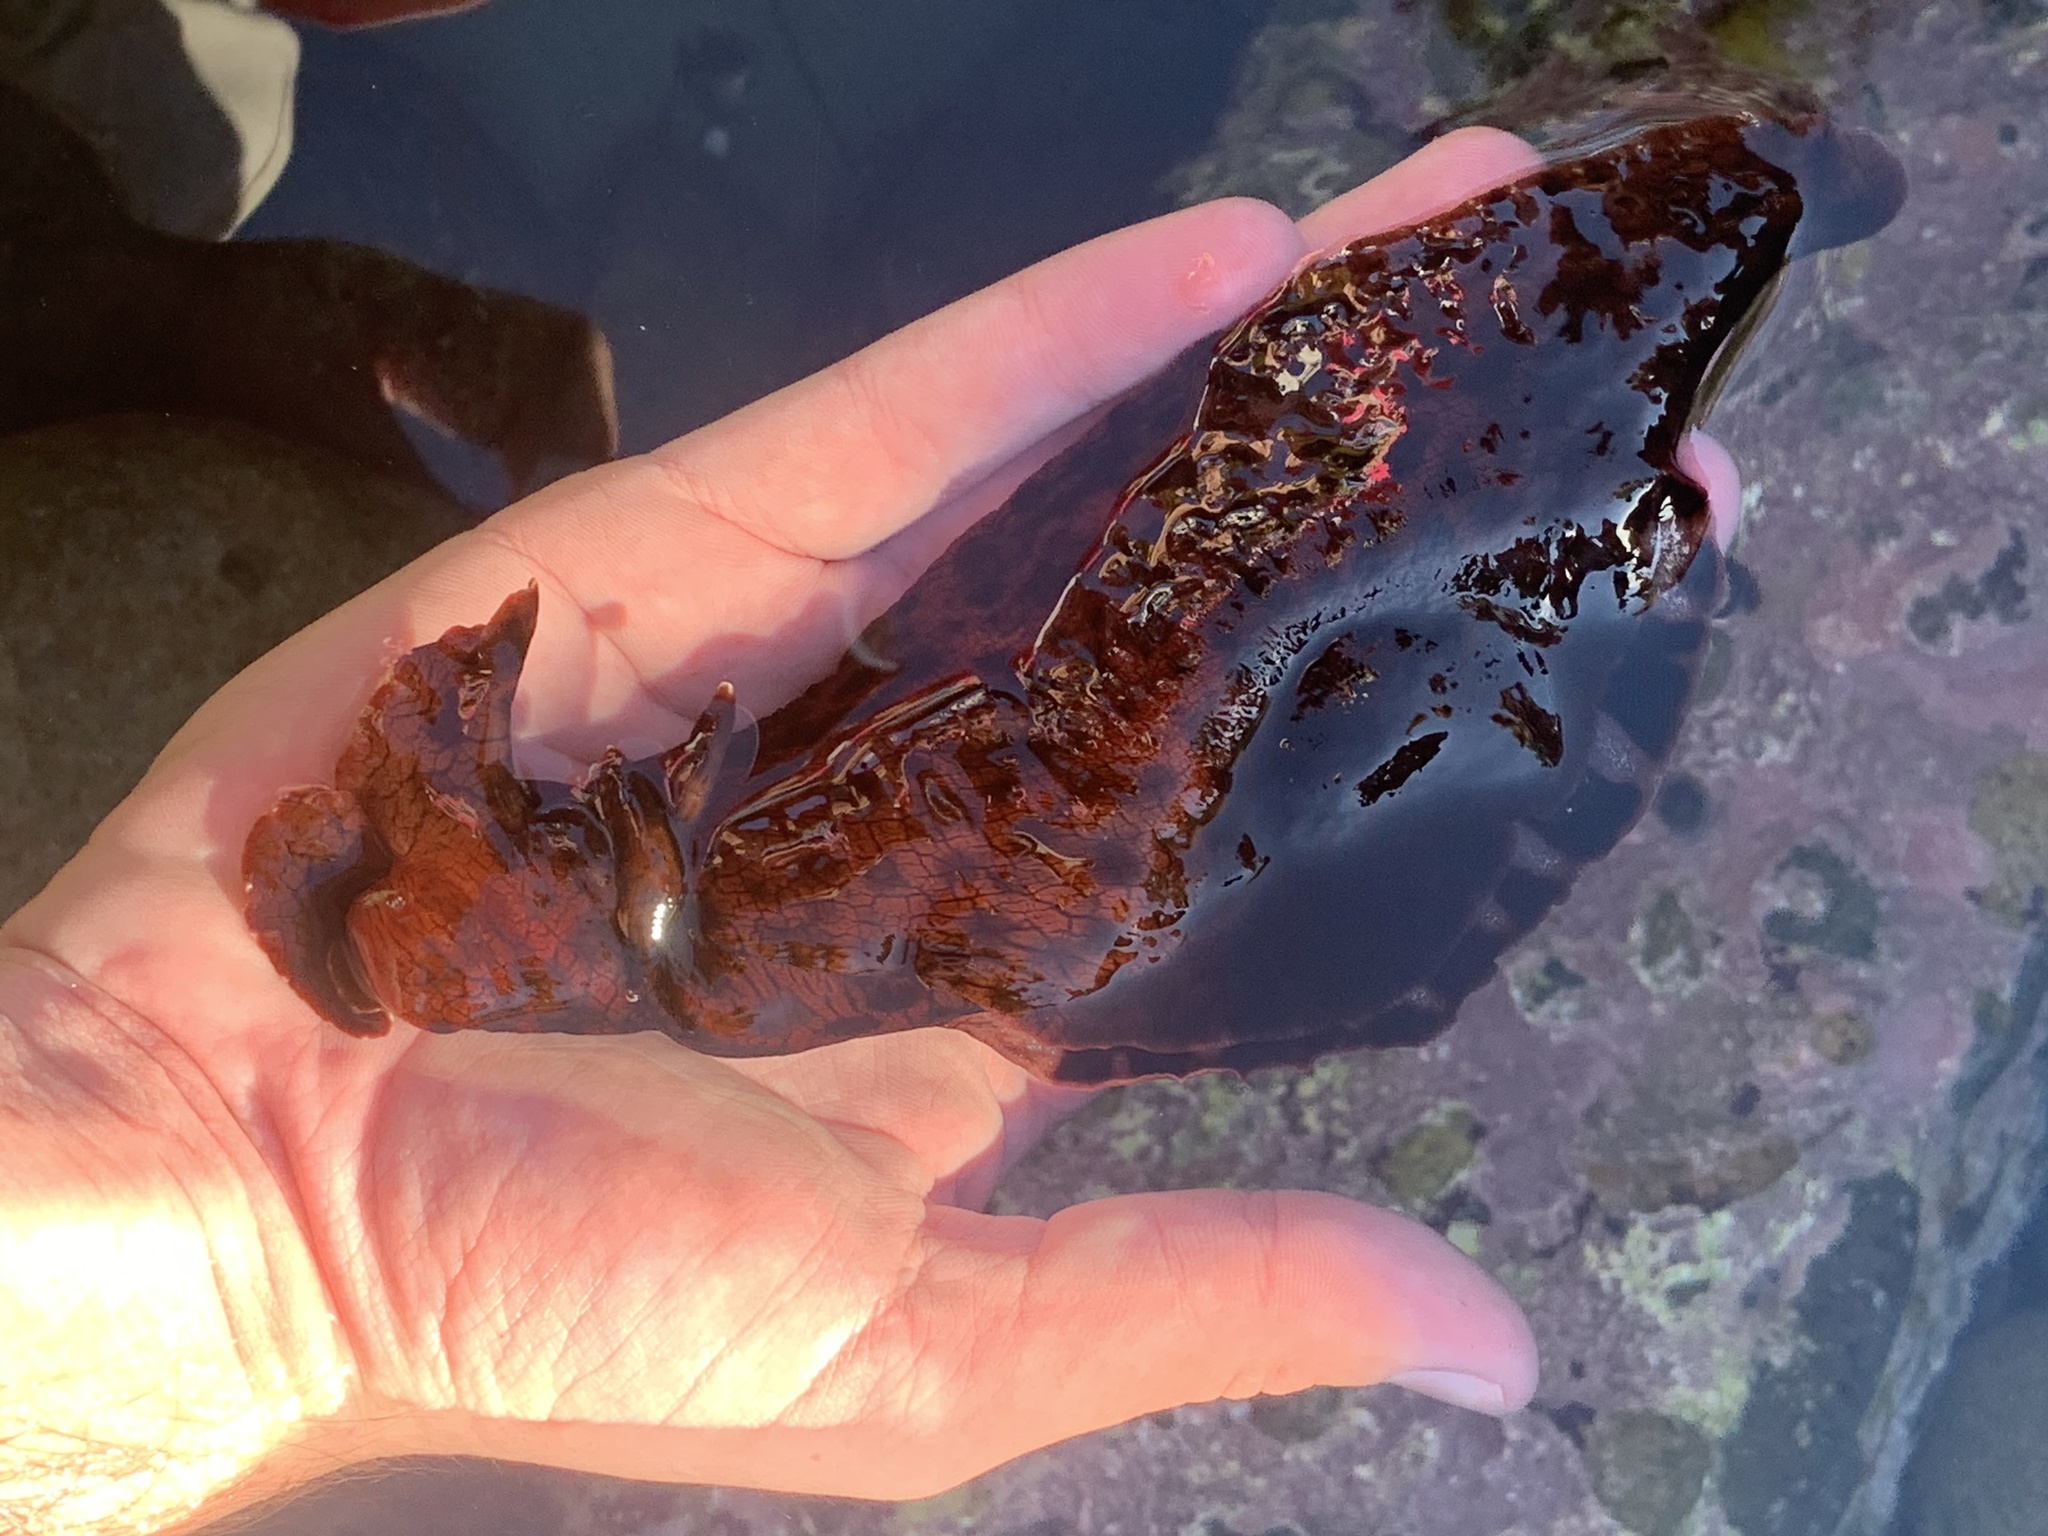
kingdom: Animalia
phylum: Mollusca
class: Gastropoda
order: Aplysiida
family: Aplysiidae
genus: Aplysia
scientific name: Aplysia californica
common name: California seahare
